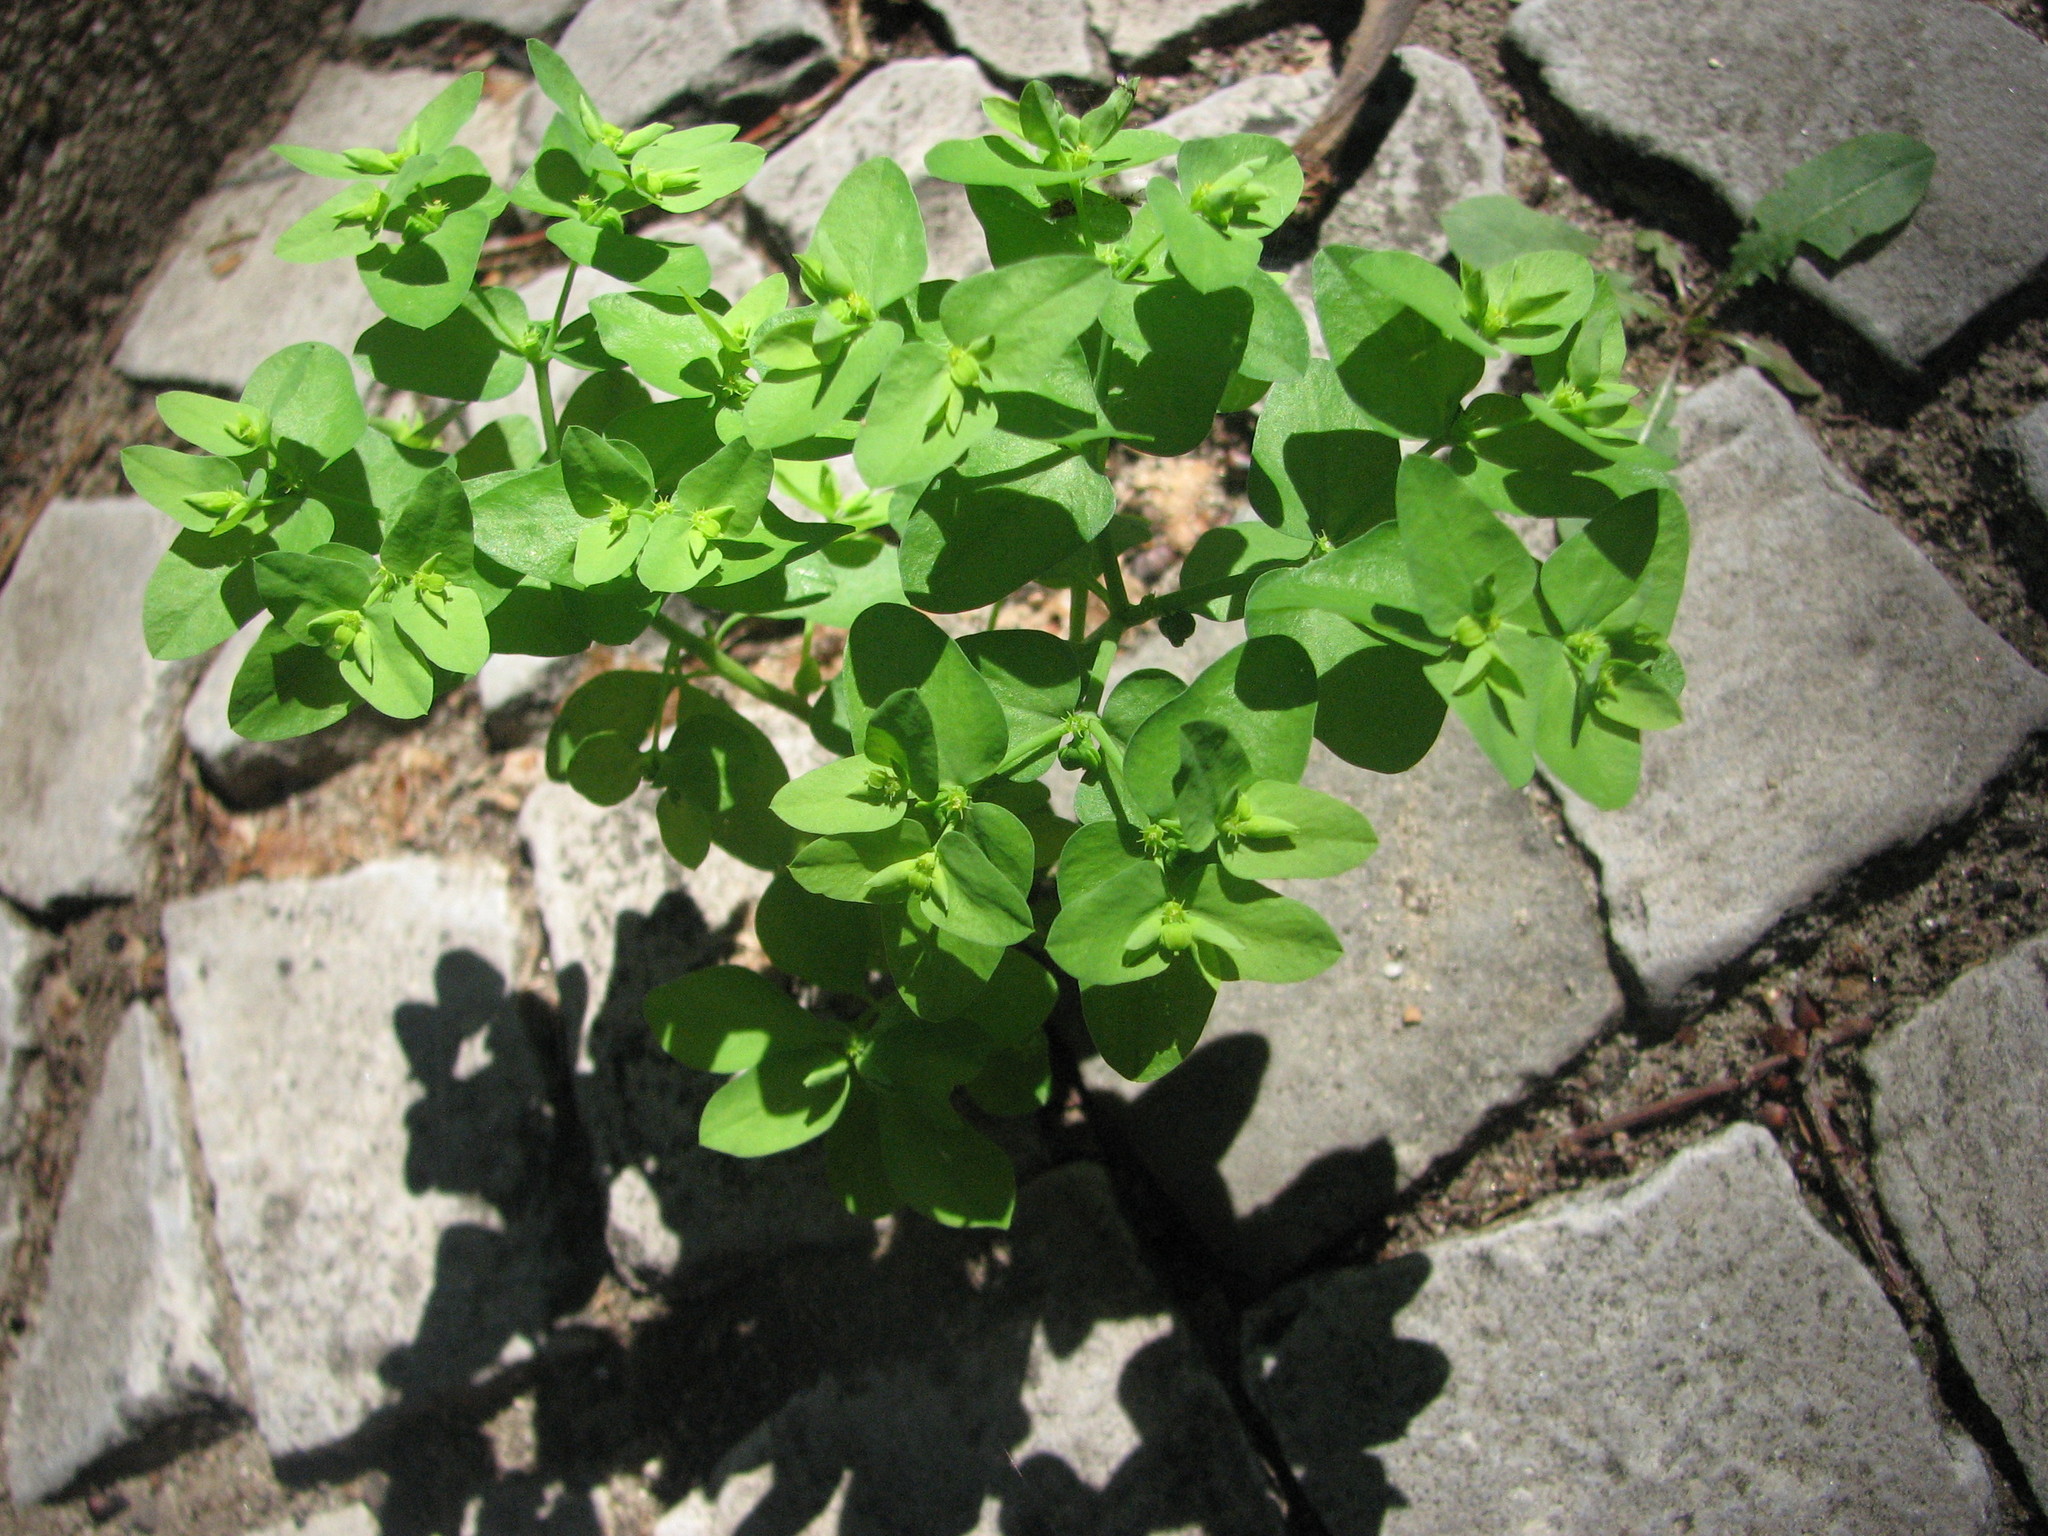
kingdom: Plantae
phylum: Tracheophyta
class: Magnoliopsida
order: Malpighiales
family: Euphorbiaceae
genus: Euphorbia
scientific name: Euphorbia peplus
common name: Petty spurge
